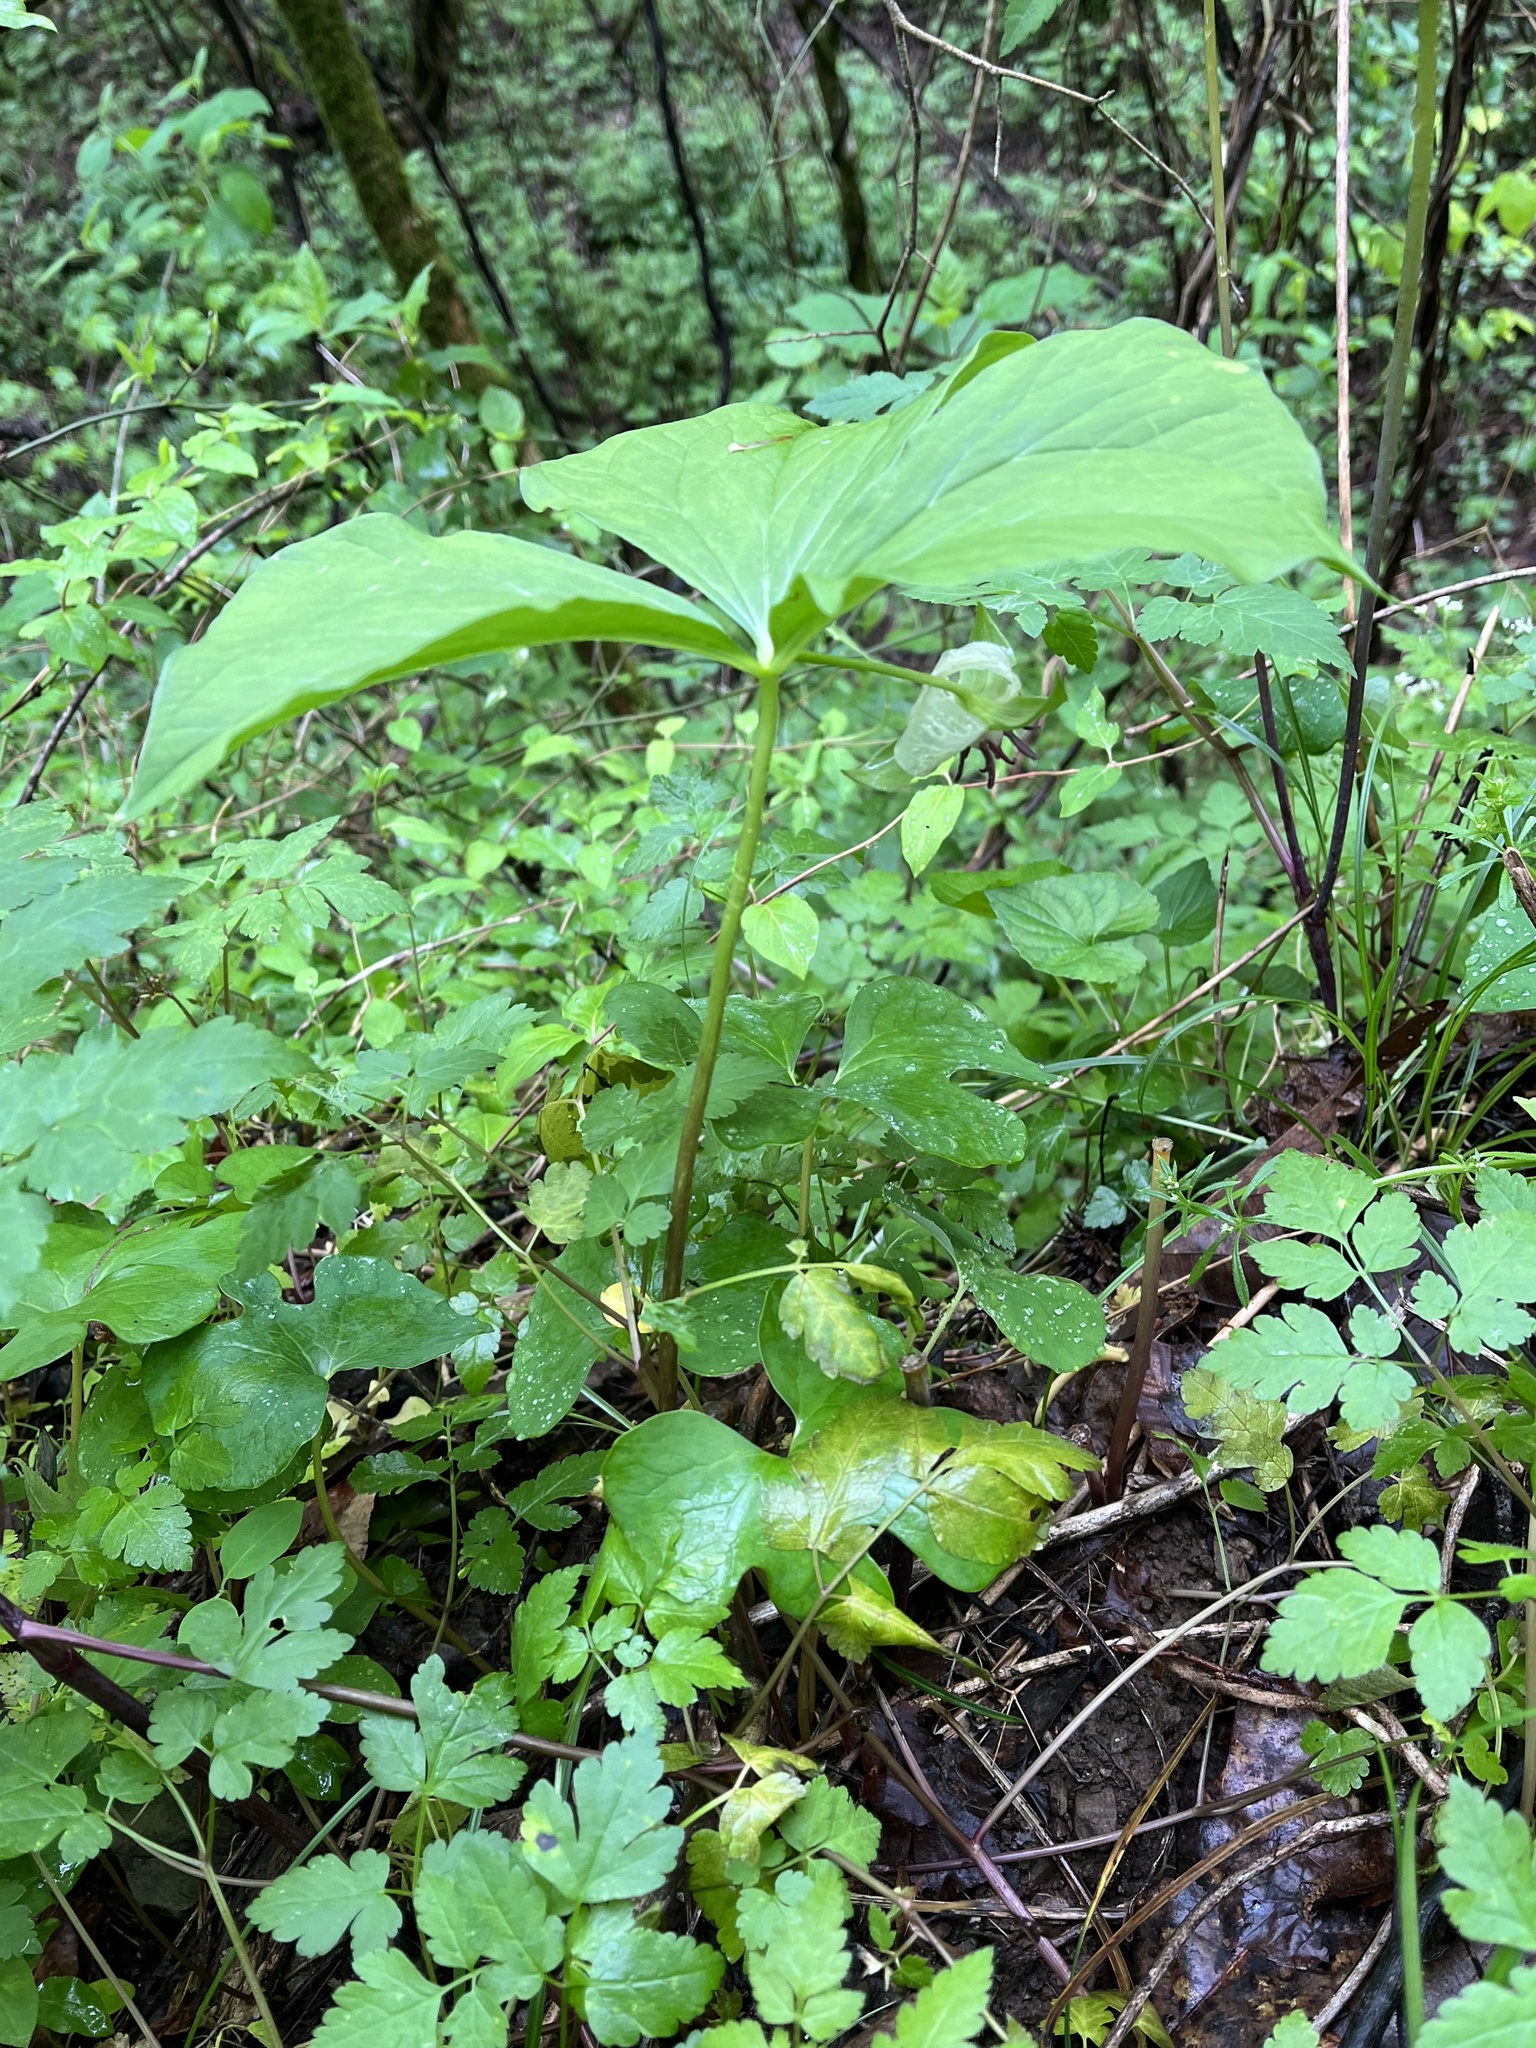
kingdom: Plantae
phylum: Tracheophyta
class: Liliopsida
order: Liliales
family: Melanthiaceae
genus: Trillium
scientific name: Trillium rugelii
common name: Ill-scented trillium
